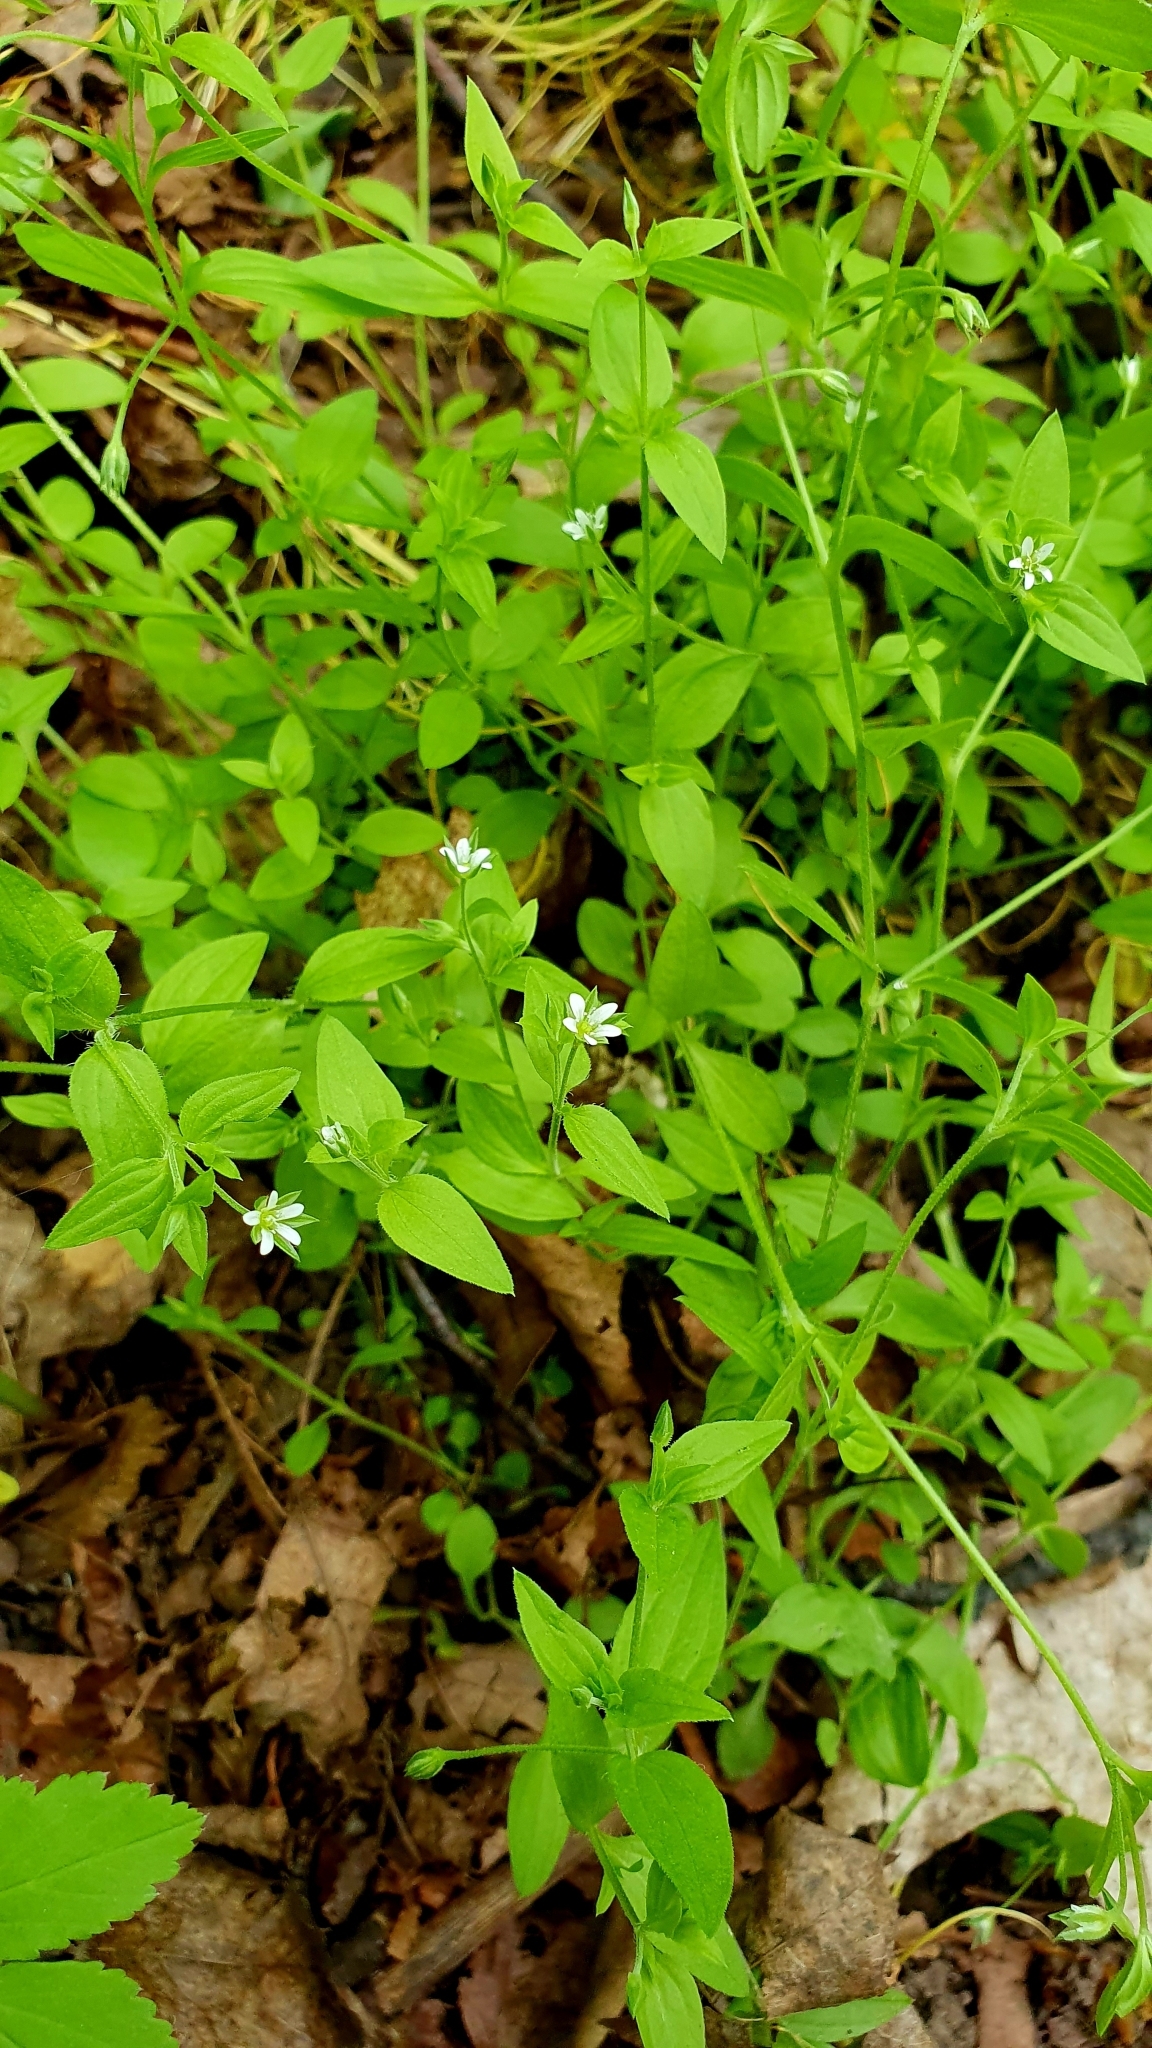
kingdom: Plantae
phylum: Tracheophyta
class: Magnoliopsida
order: Caryophyllales
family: Caryophyllaceae
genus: Moehringia
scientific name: Moehringia trinervia
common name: Three-nerved sandwort
